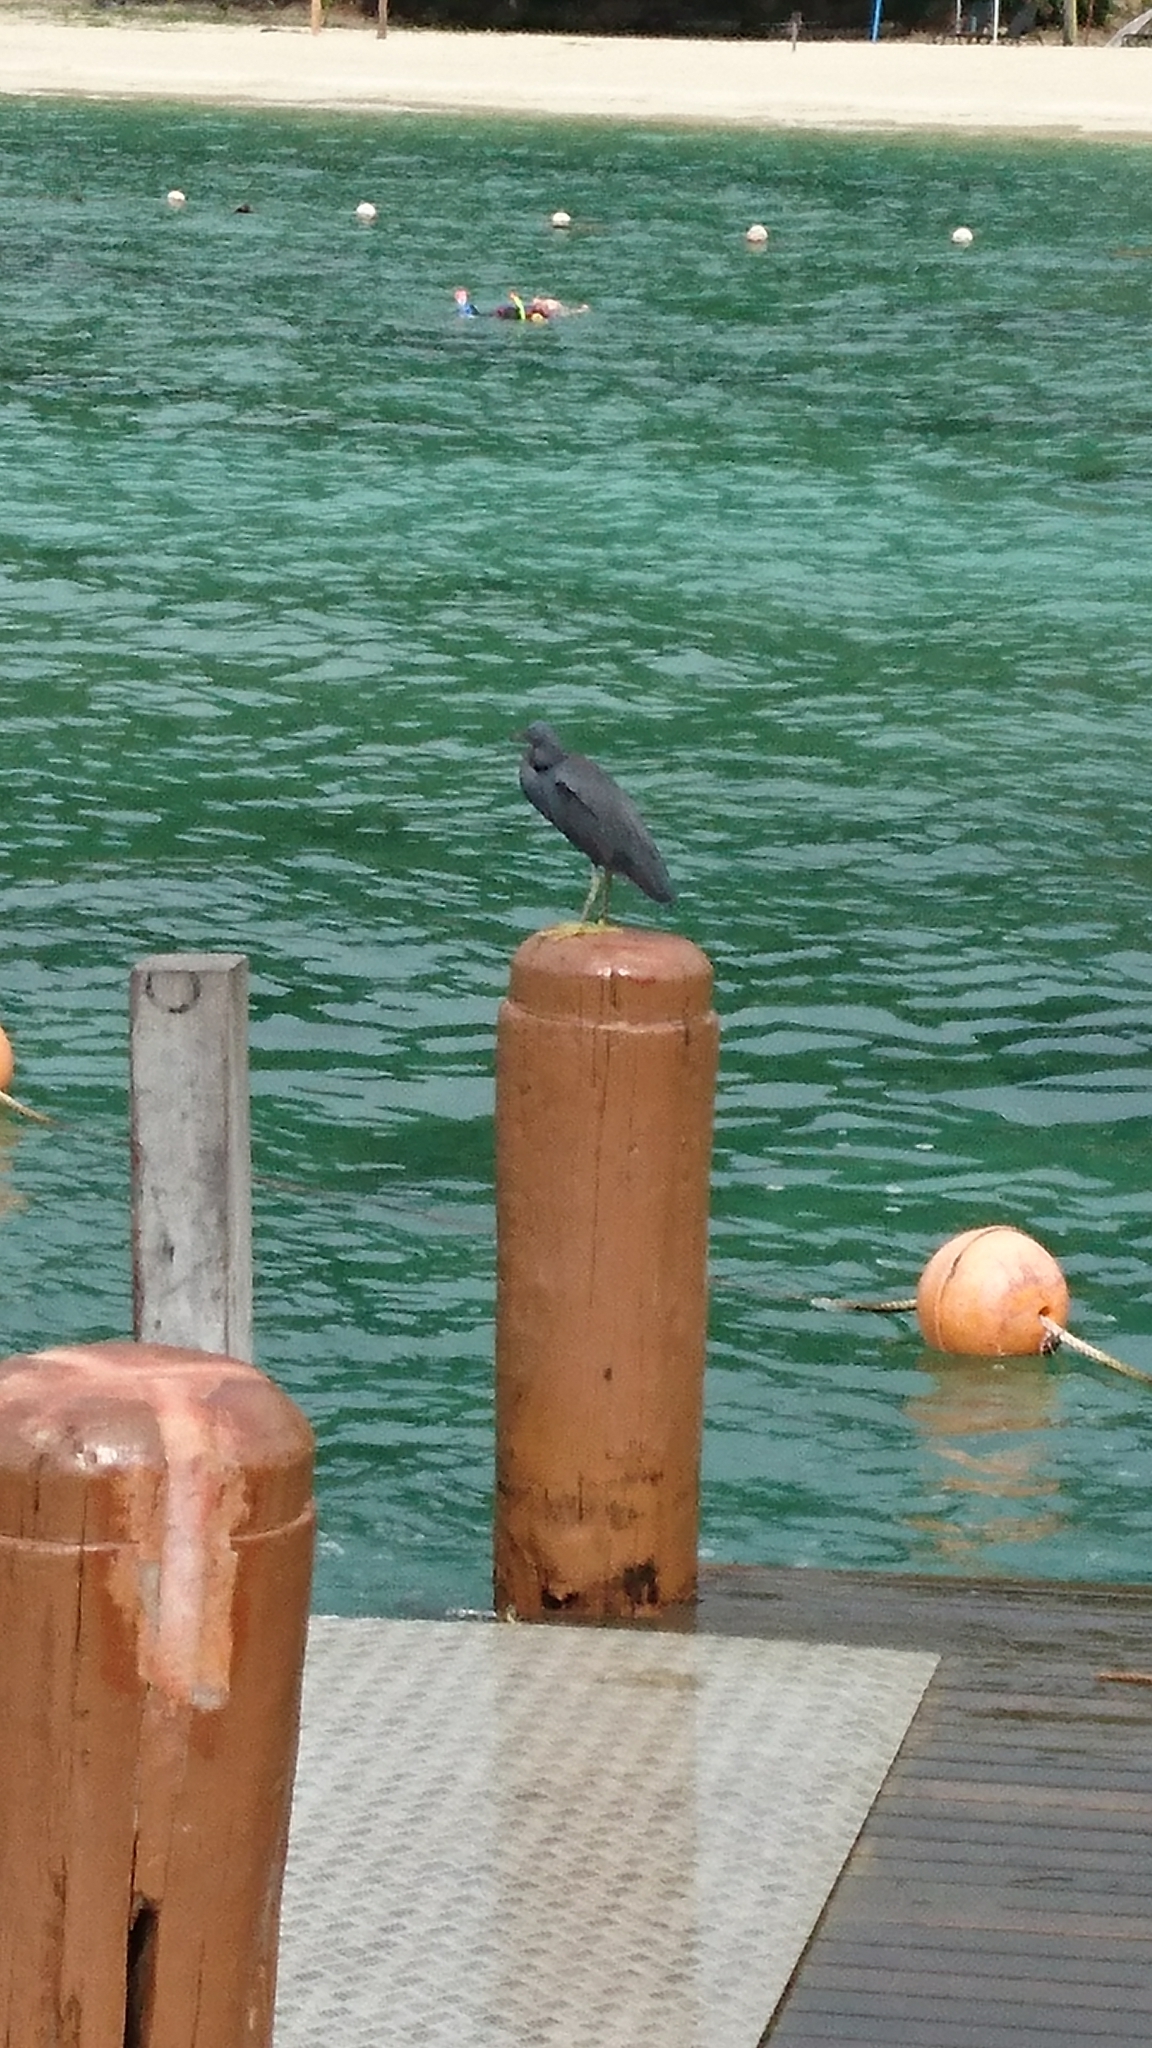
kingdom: Animalia
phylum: Chordata
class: Aves
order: Pelecaniformes
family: Ardeidae
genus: Egretta
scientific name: Egretta sacra
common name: Pacific reef heron
